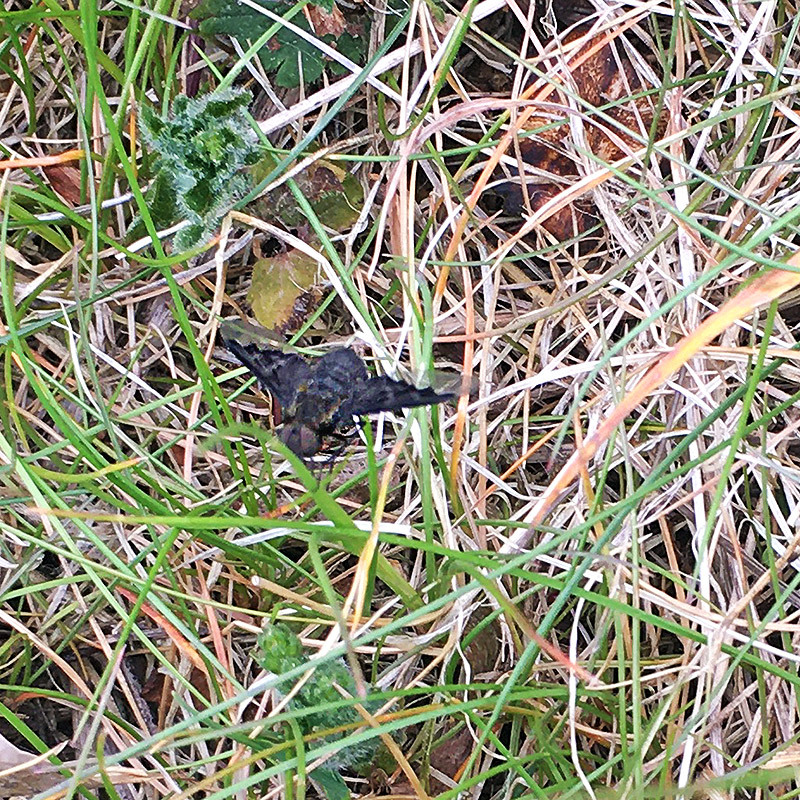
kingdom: Animalia
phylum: Arthropoda
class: Insecta
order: Diptera
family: Bombyliidae
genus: Hemipenthes
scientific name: Hemipenthes morio
